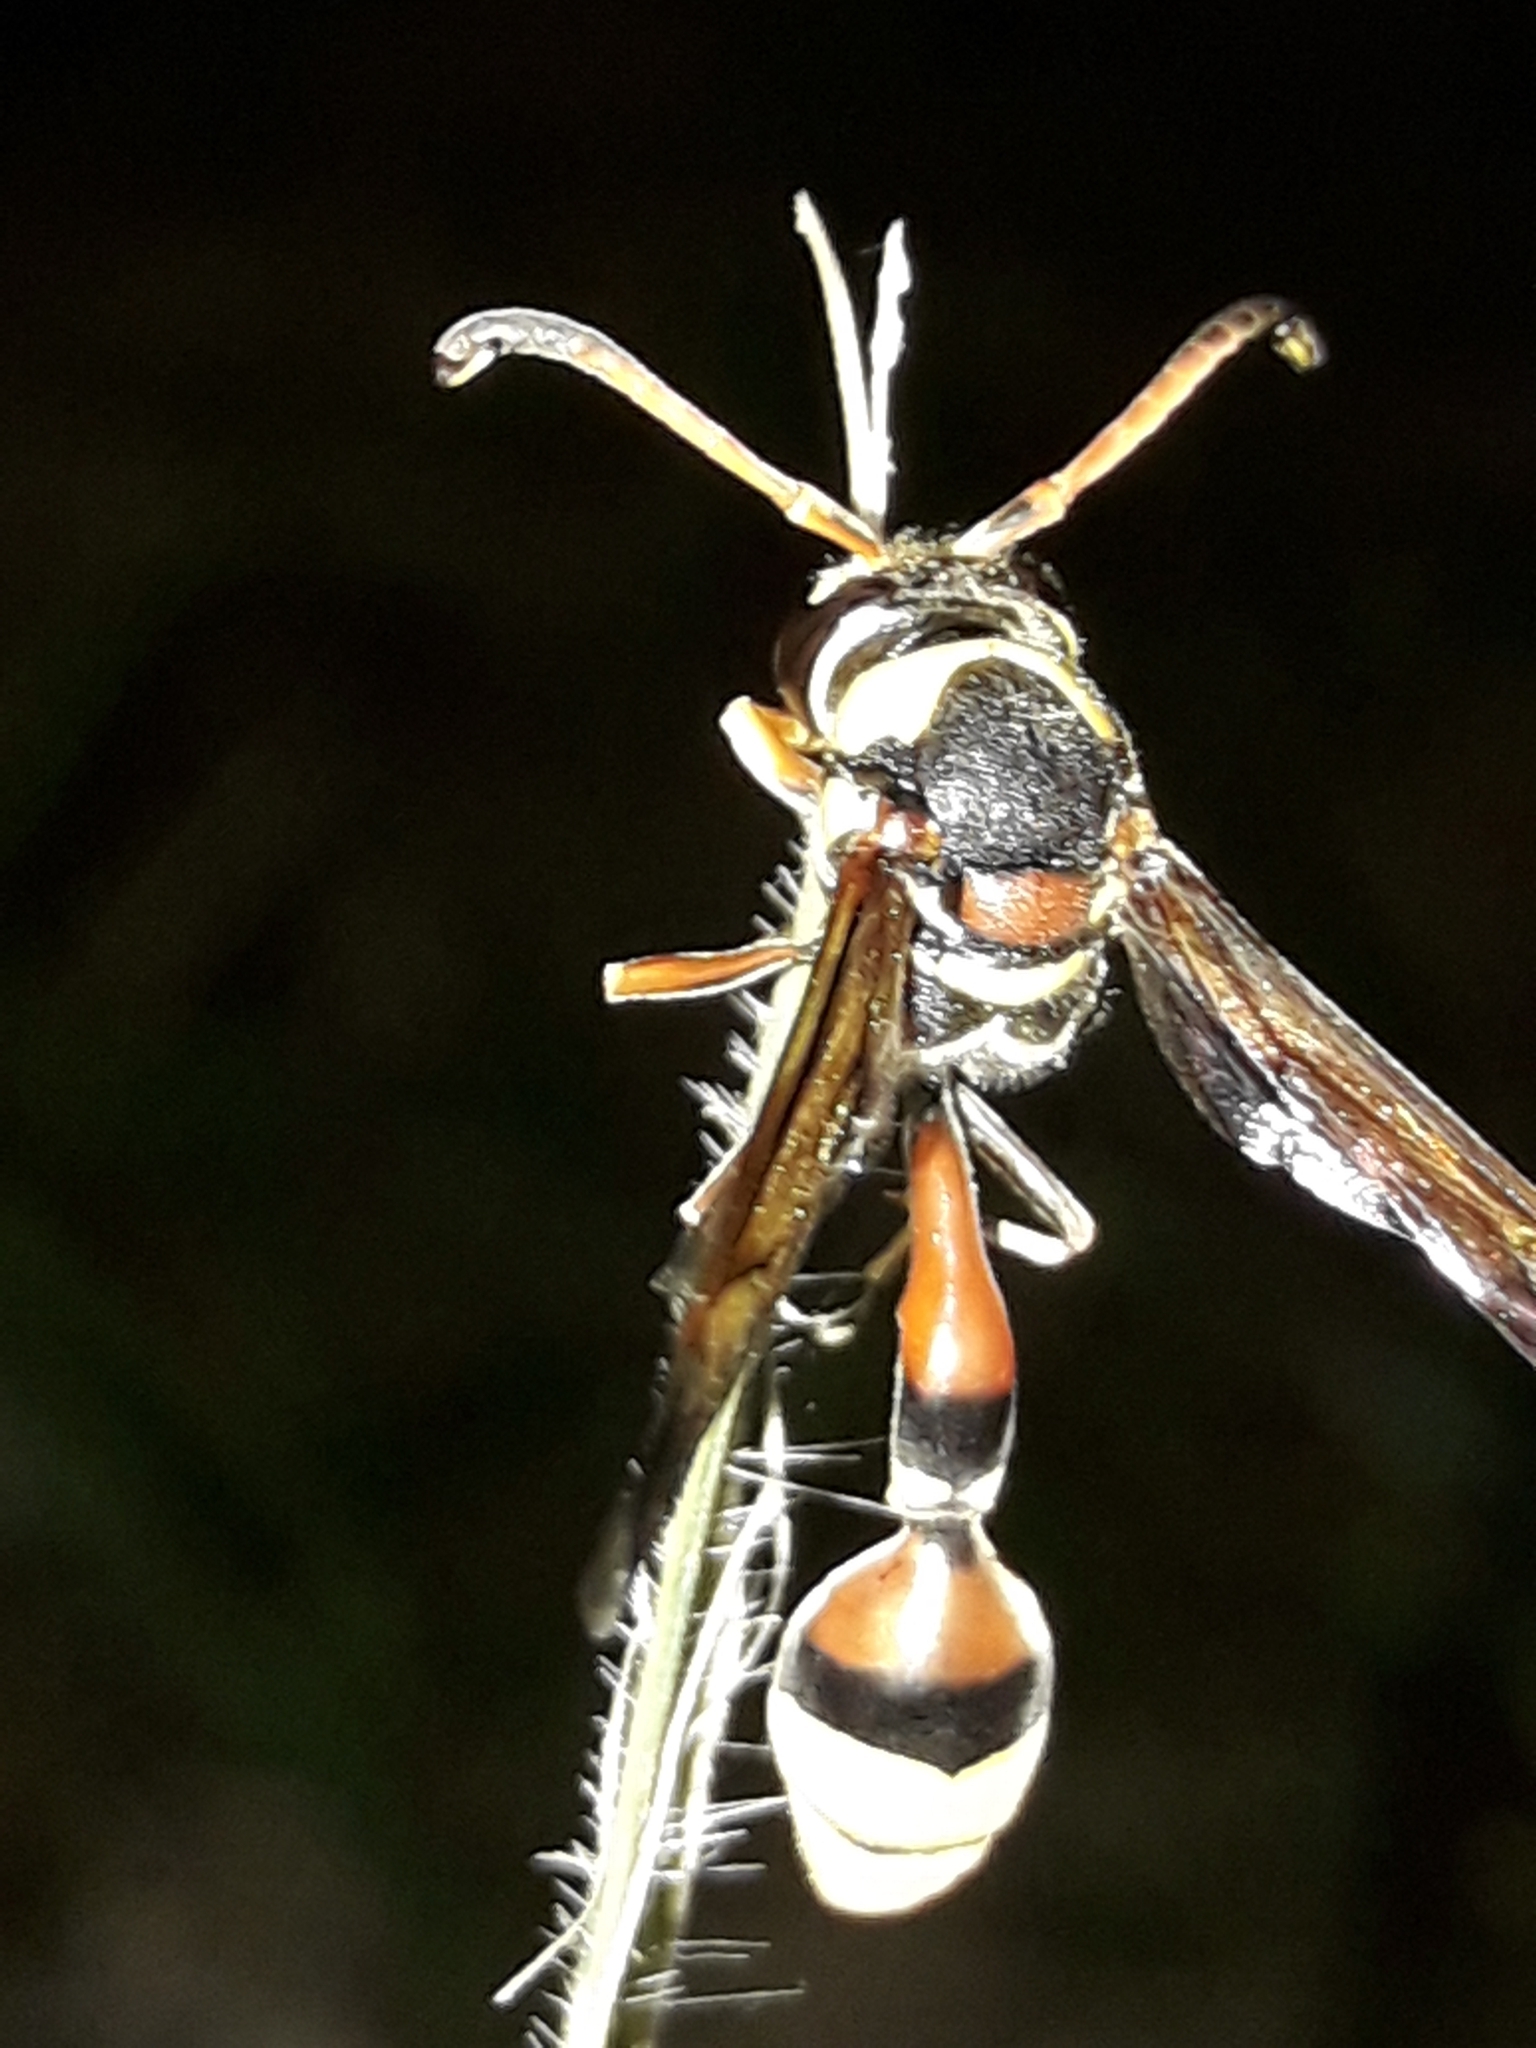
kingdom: Animalia
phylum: Arthropoda
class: Insecta
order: Hymenoptera
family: Eumenidae
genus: Delta
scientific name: Delta esuriens
